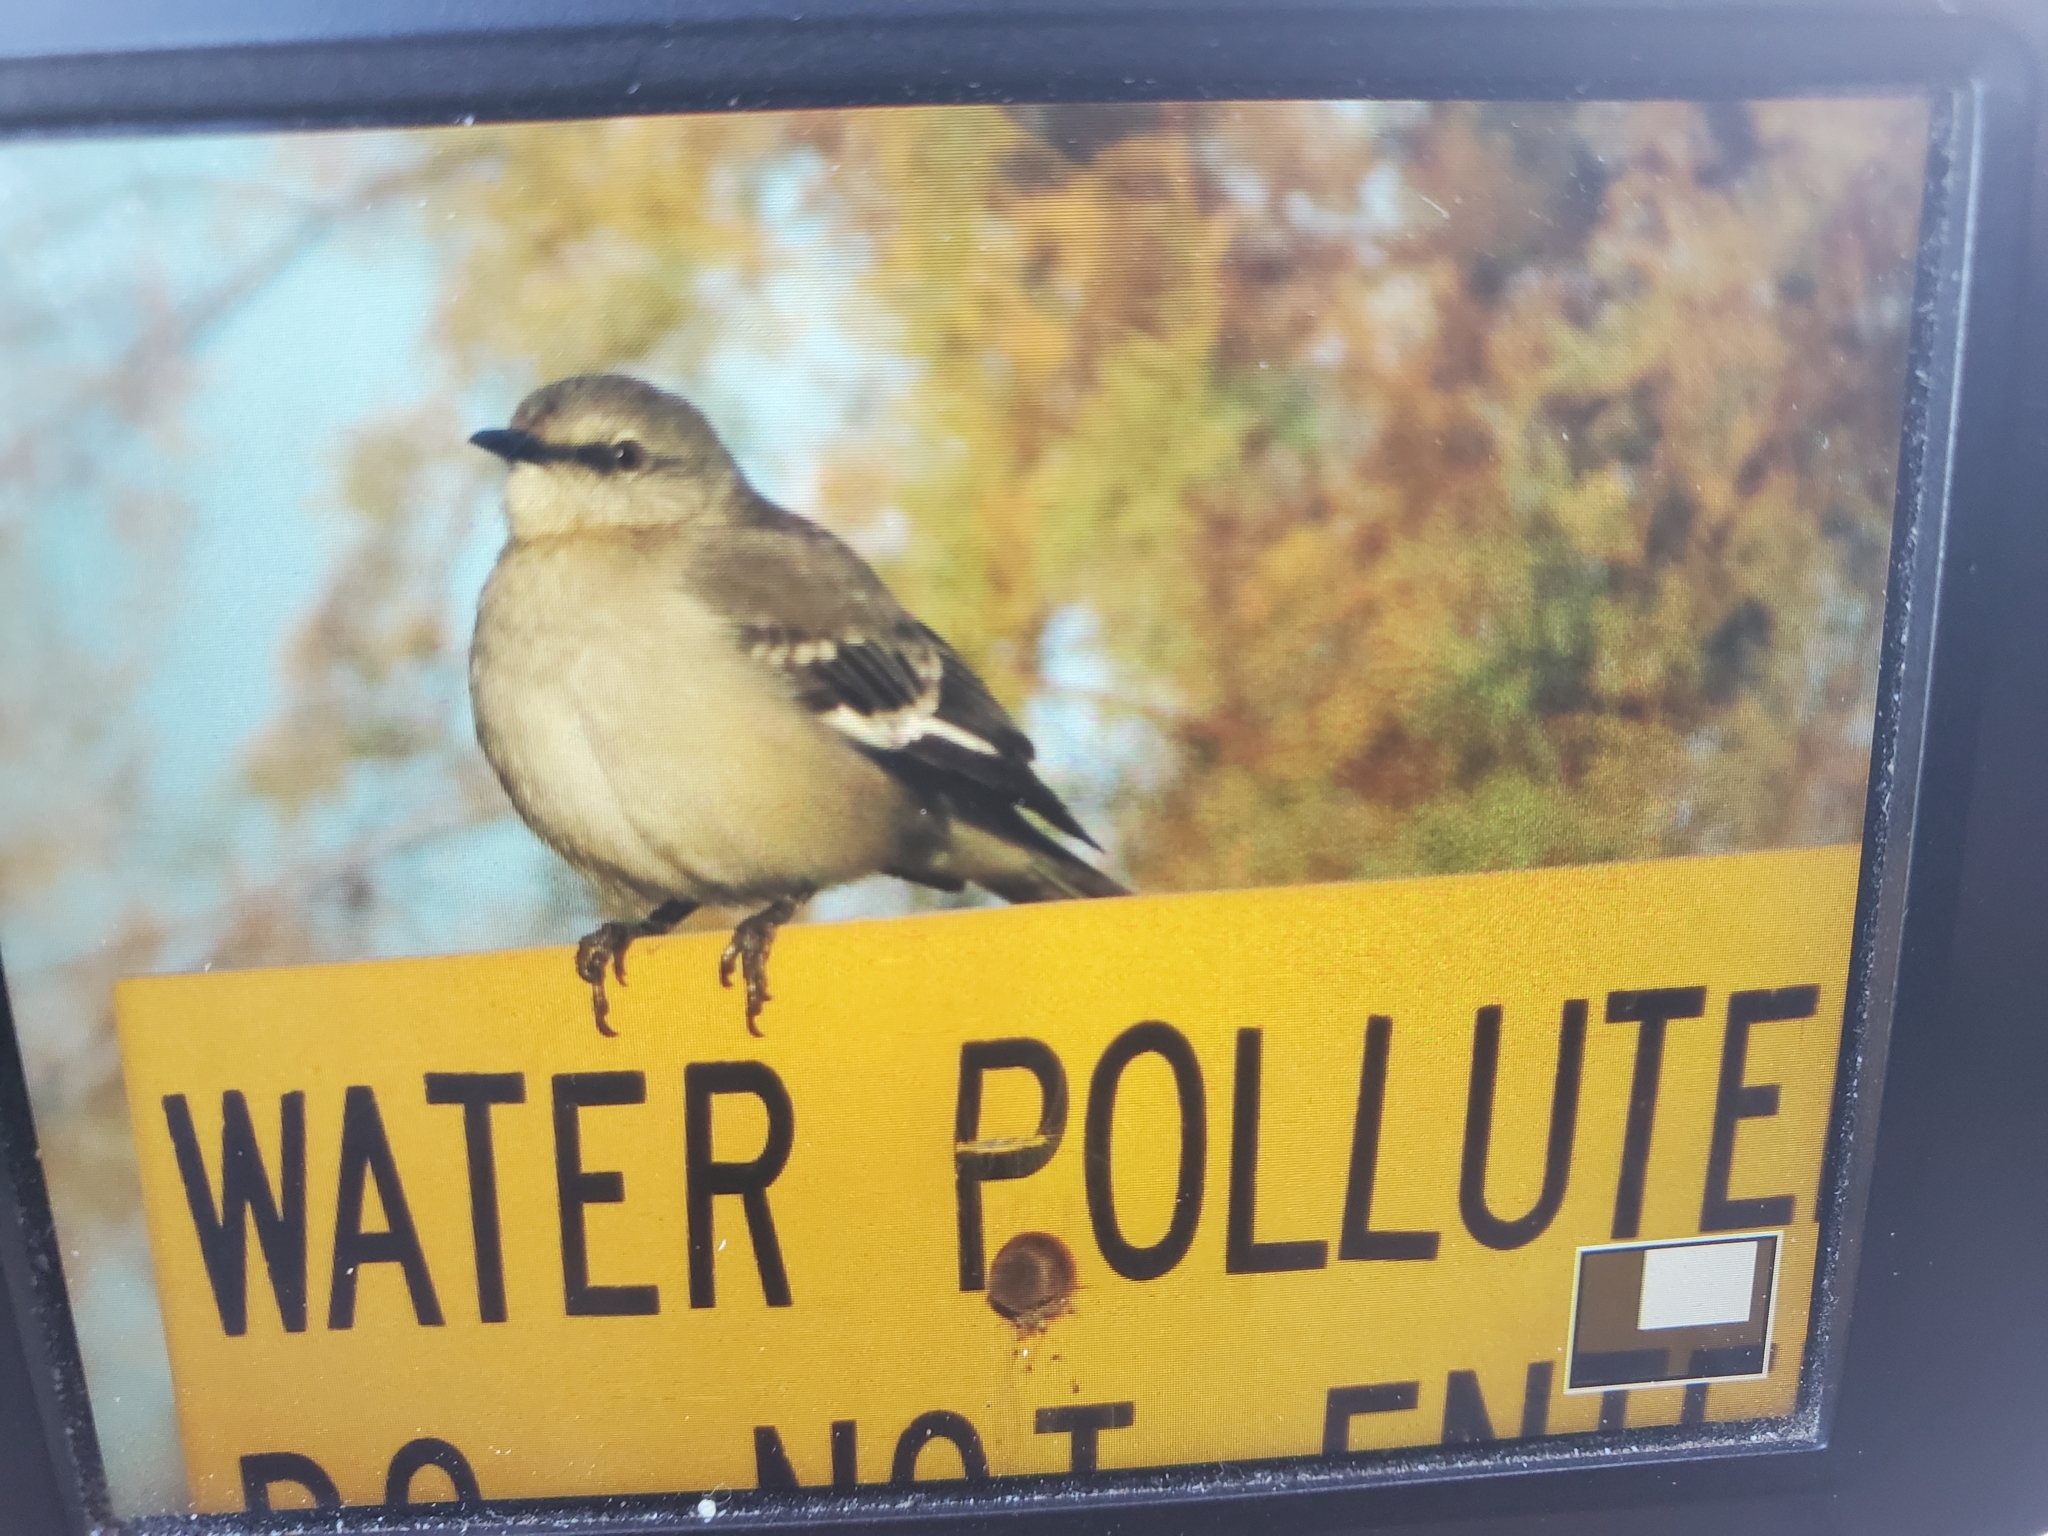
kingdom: Animalia
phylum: Chordata
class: Aves
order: Passeriformes
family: Mimidae
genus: Mimus
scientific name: Mimus polyglottos
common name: Northern mockingbird
